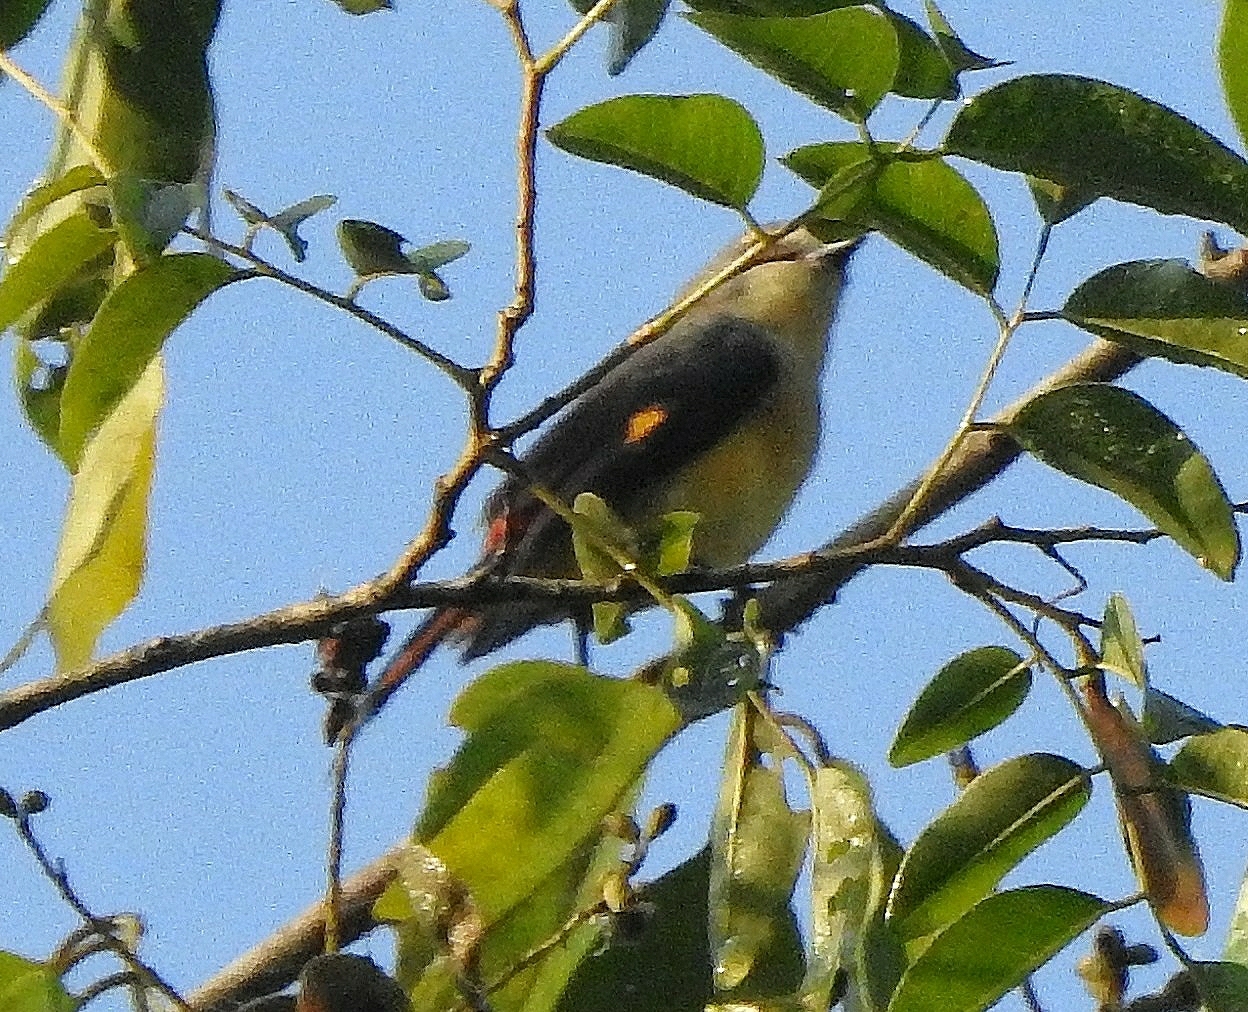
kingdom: Animalia
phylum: Chordata
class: Aves
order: Passeriformes
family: Campephagidae
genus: Pericrocotus
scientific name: Pericrocotus cinnamomeus
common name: Small minivet
